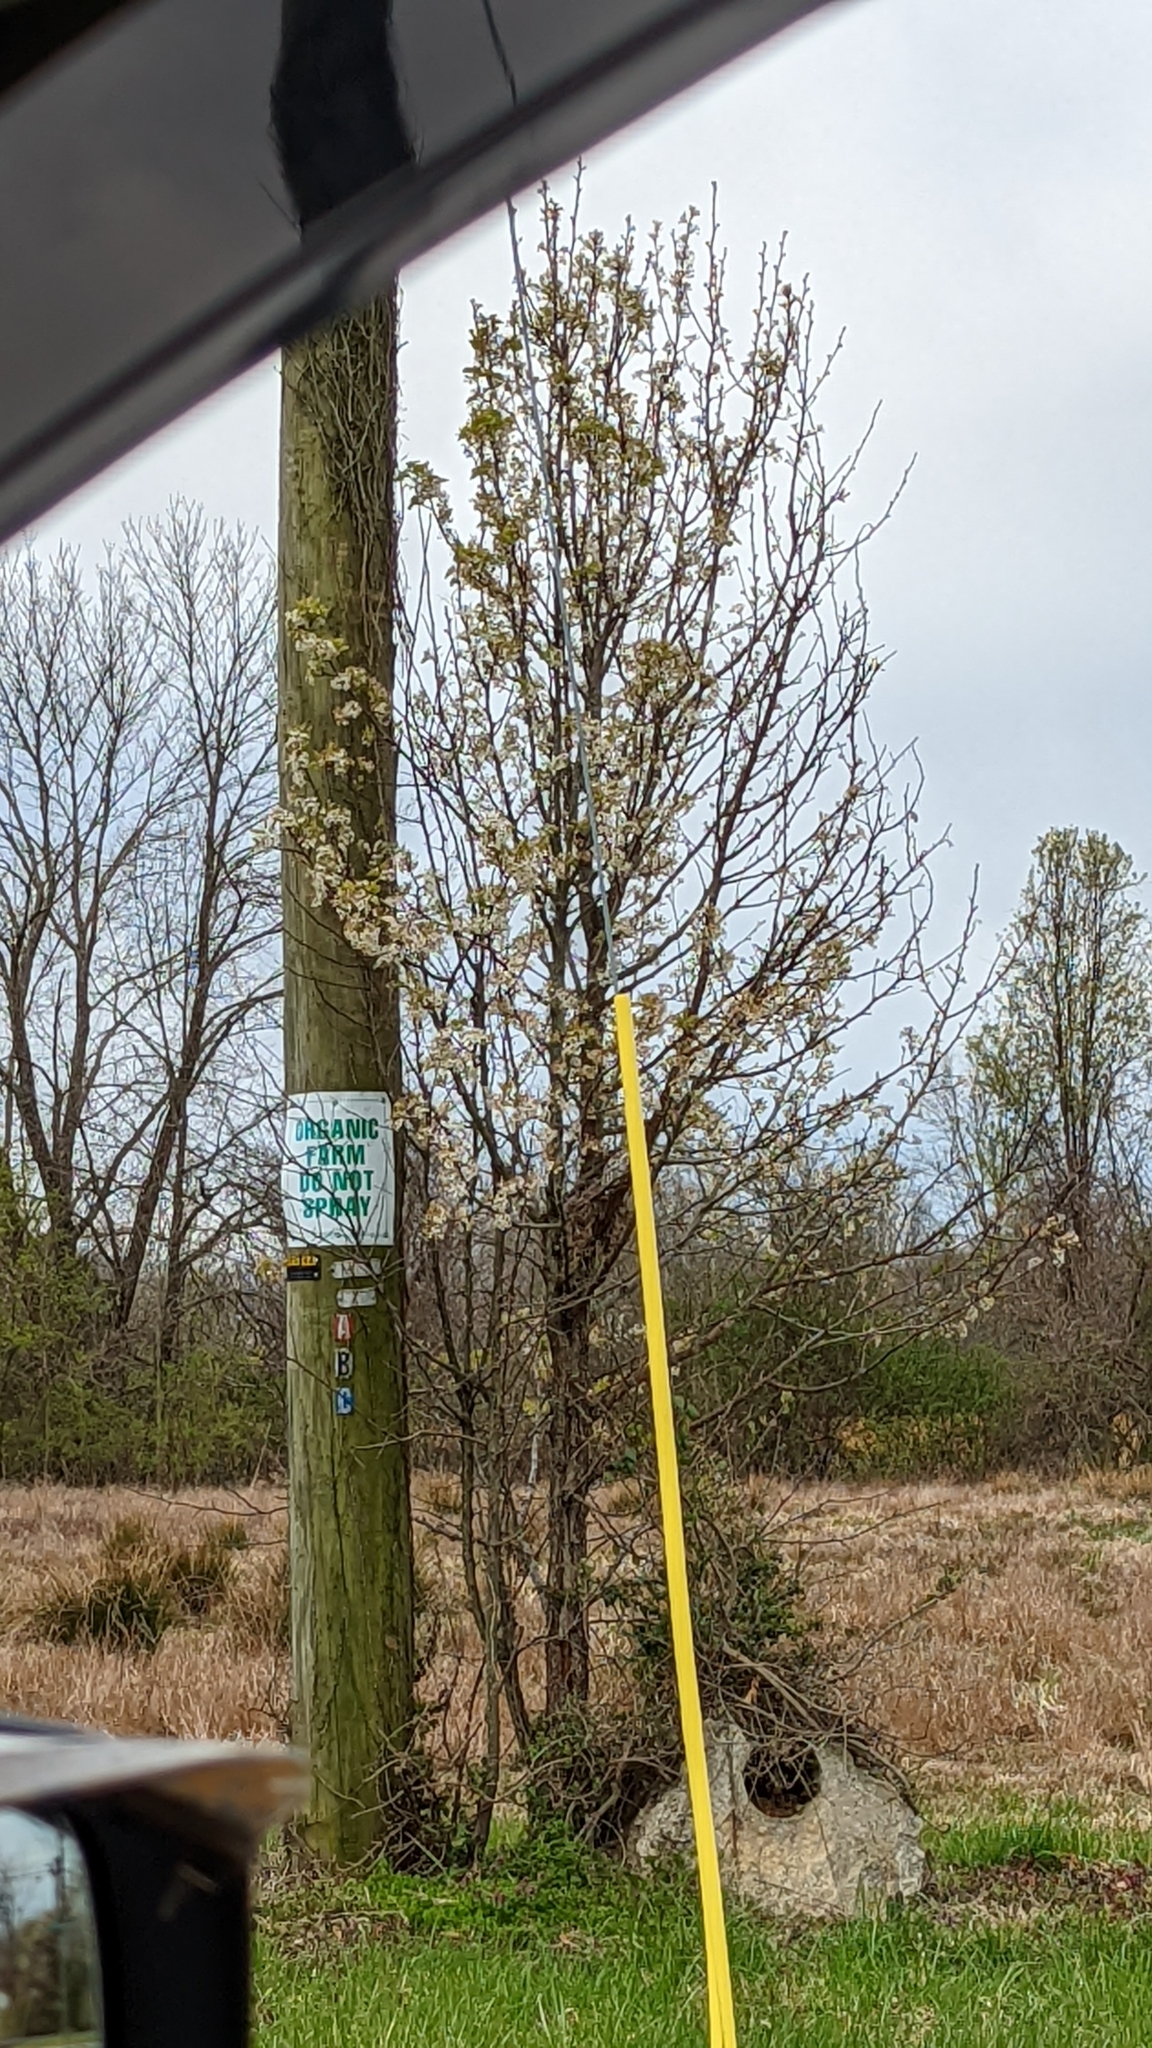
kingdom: Plantae
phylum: Tracheophyta
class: Magnoliopsida
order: Rosales
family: Rosaceae
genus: Pyrus
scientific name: Pyrus calleryana
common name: Callery pear
